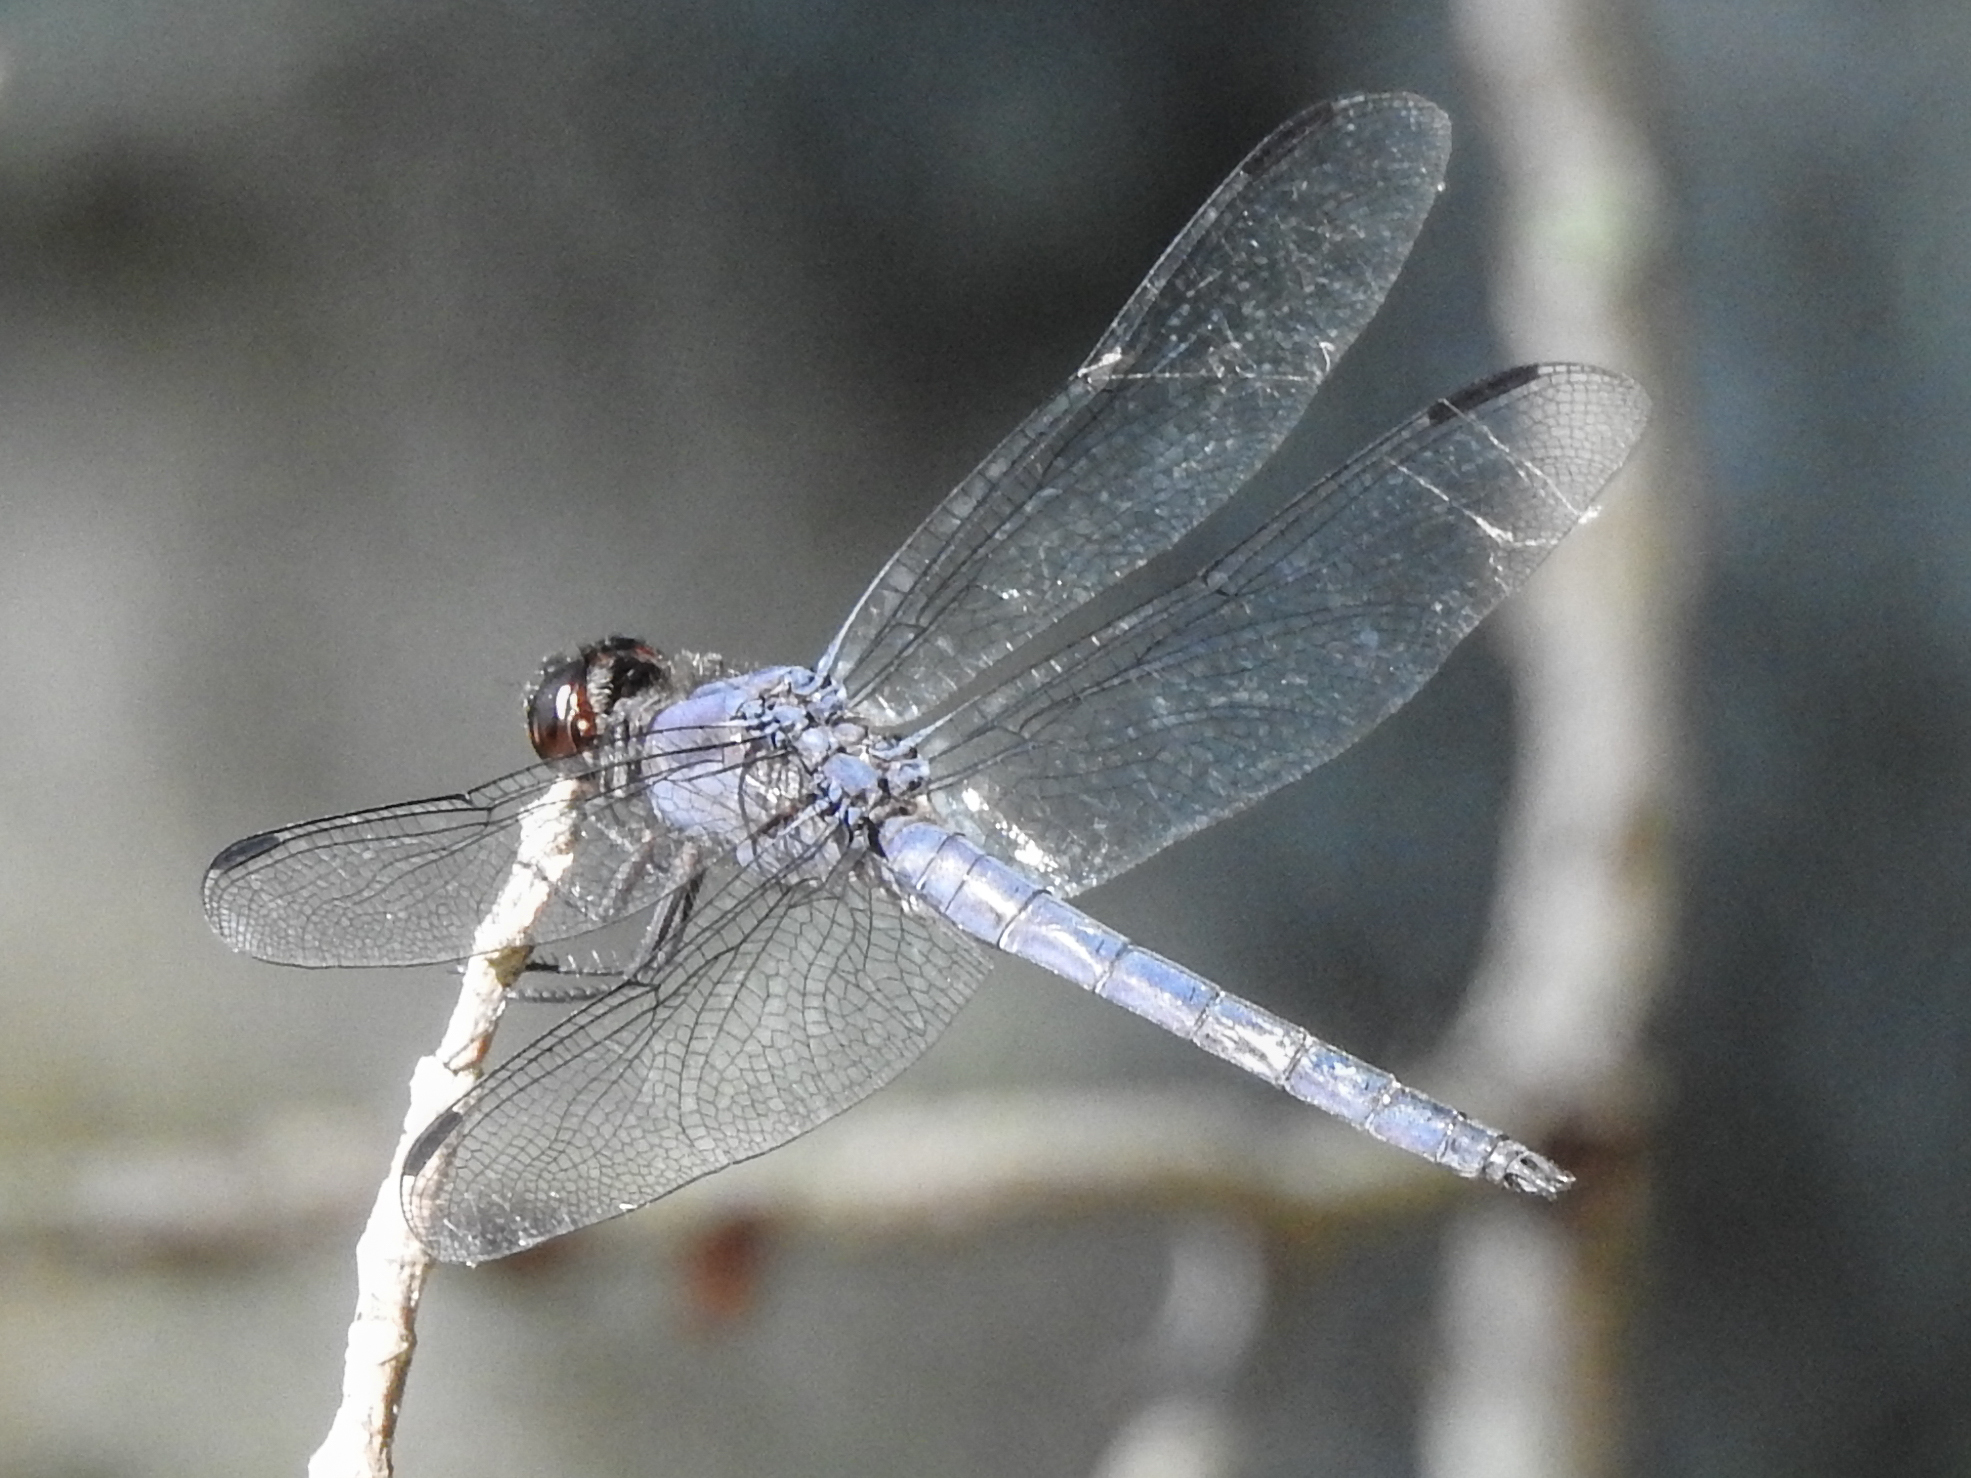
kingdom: Animalia
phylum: Arthropoda
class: Insecta
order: Odonata
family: Libellulidae
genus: Libellula
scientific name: Libellula incesta
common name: Slaty skimmer
